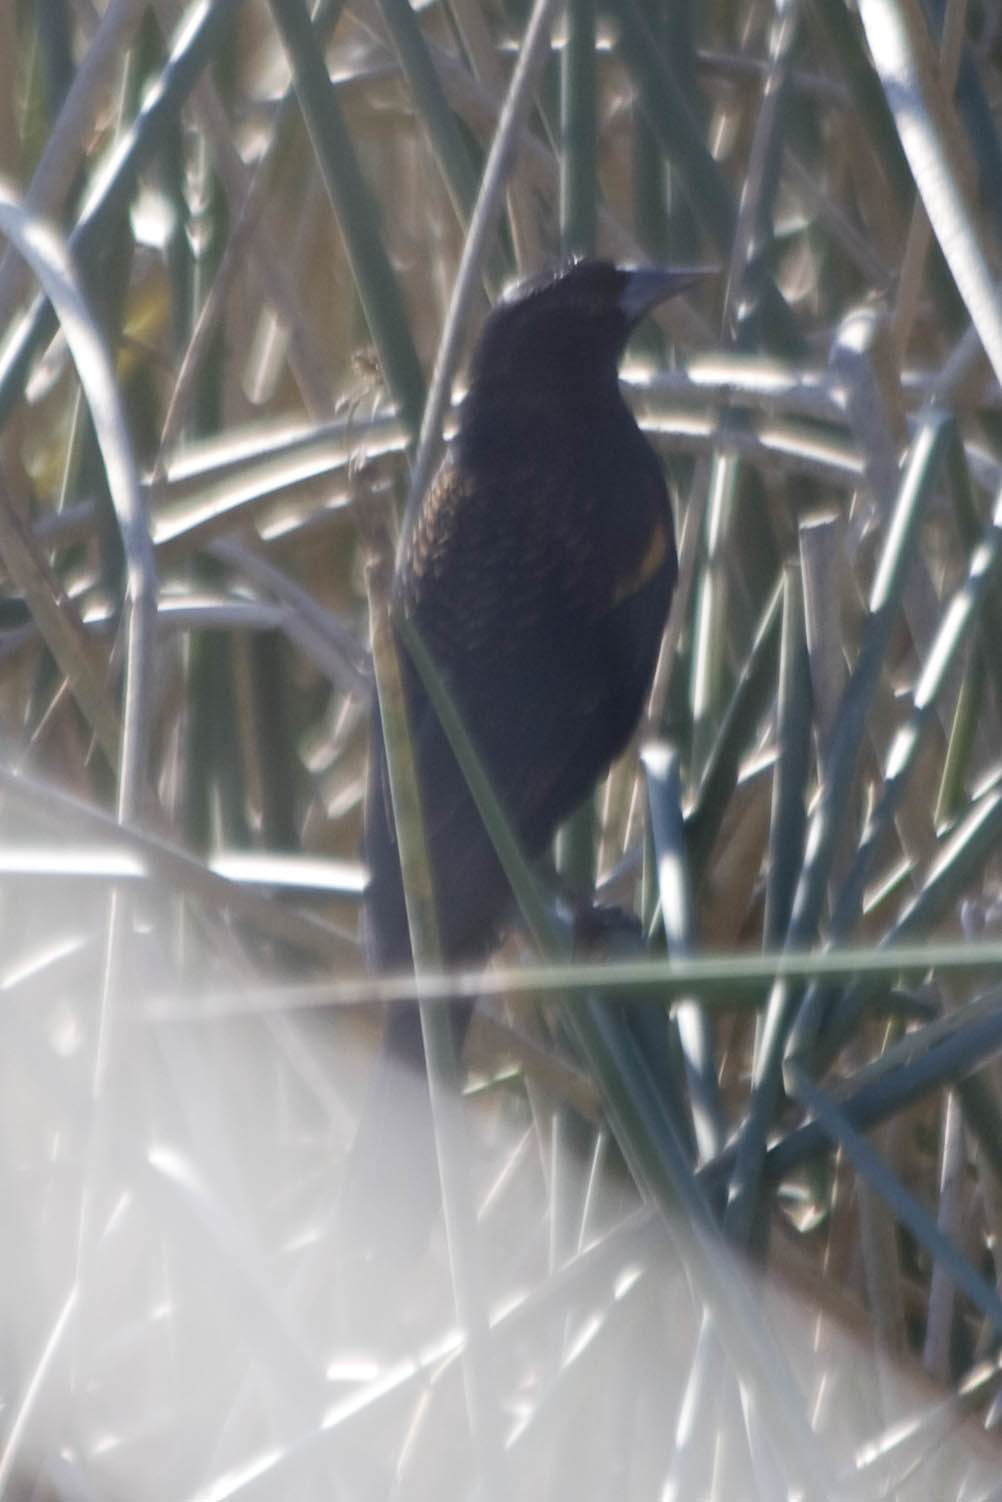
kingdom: Animalia
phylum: Chordata
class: Aves
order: Passeriformes
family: Icteridae
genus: Agelaius
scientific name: Agelaius phoeniceus
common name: Red-winged blackbird
